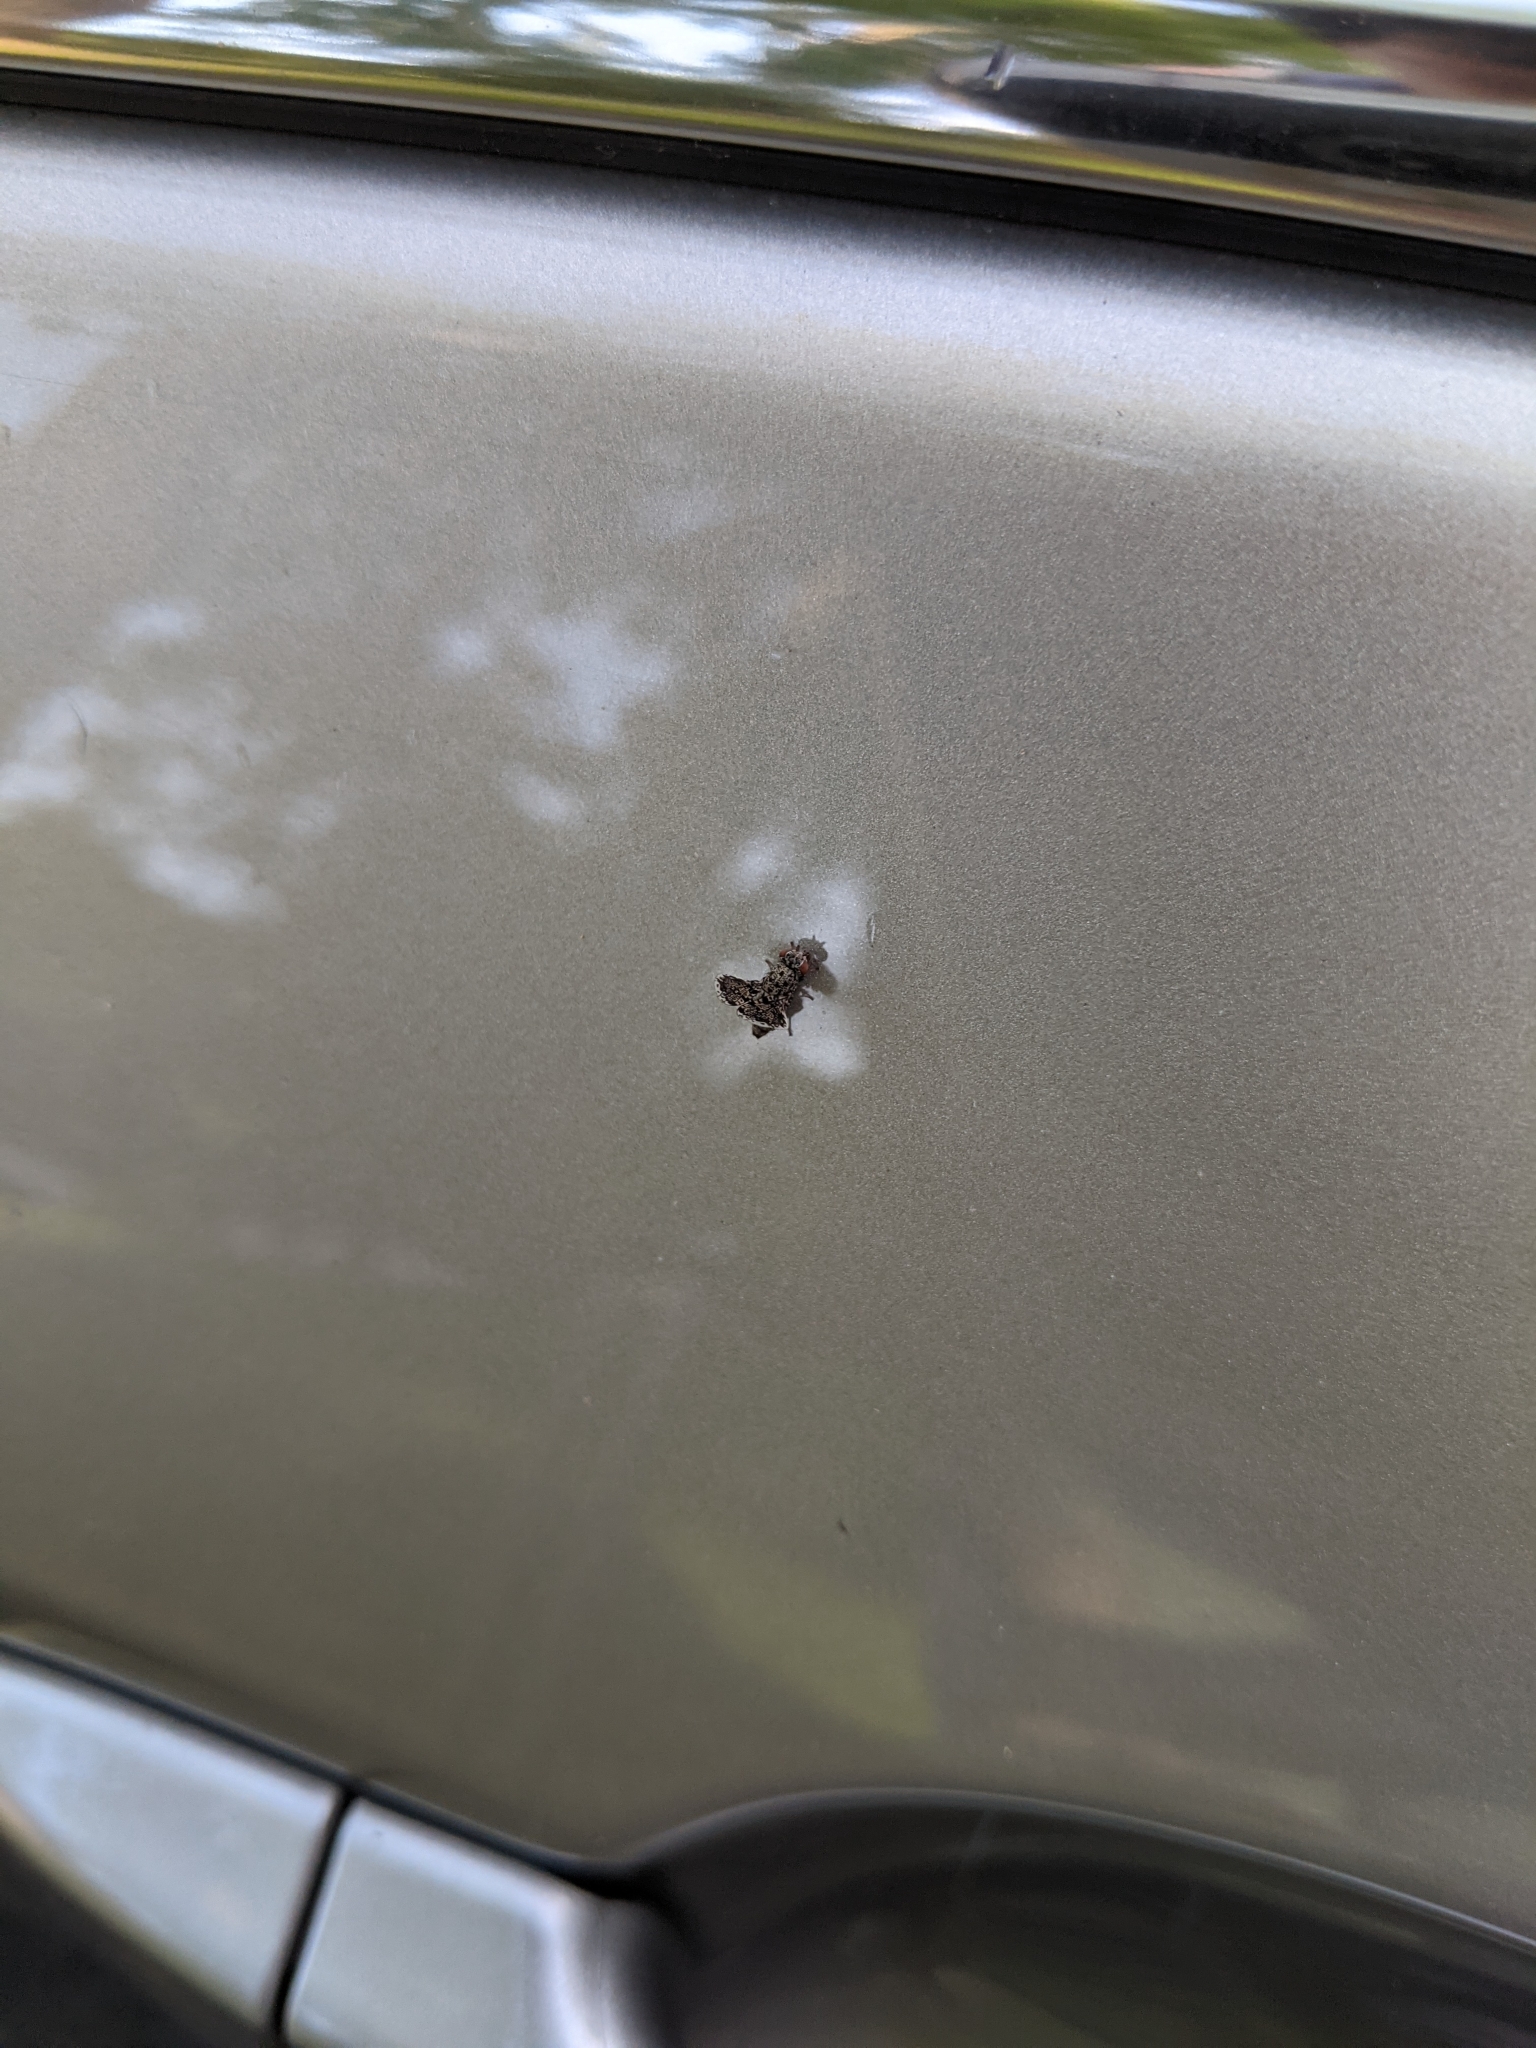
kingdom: Animalia
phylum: Arthropoda
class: Insecta
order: Diptera
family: Ulidiidae
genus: Callopistromyia
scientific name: Callopistromyia annulipes
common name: Peacock fly
